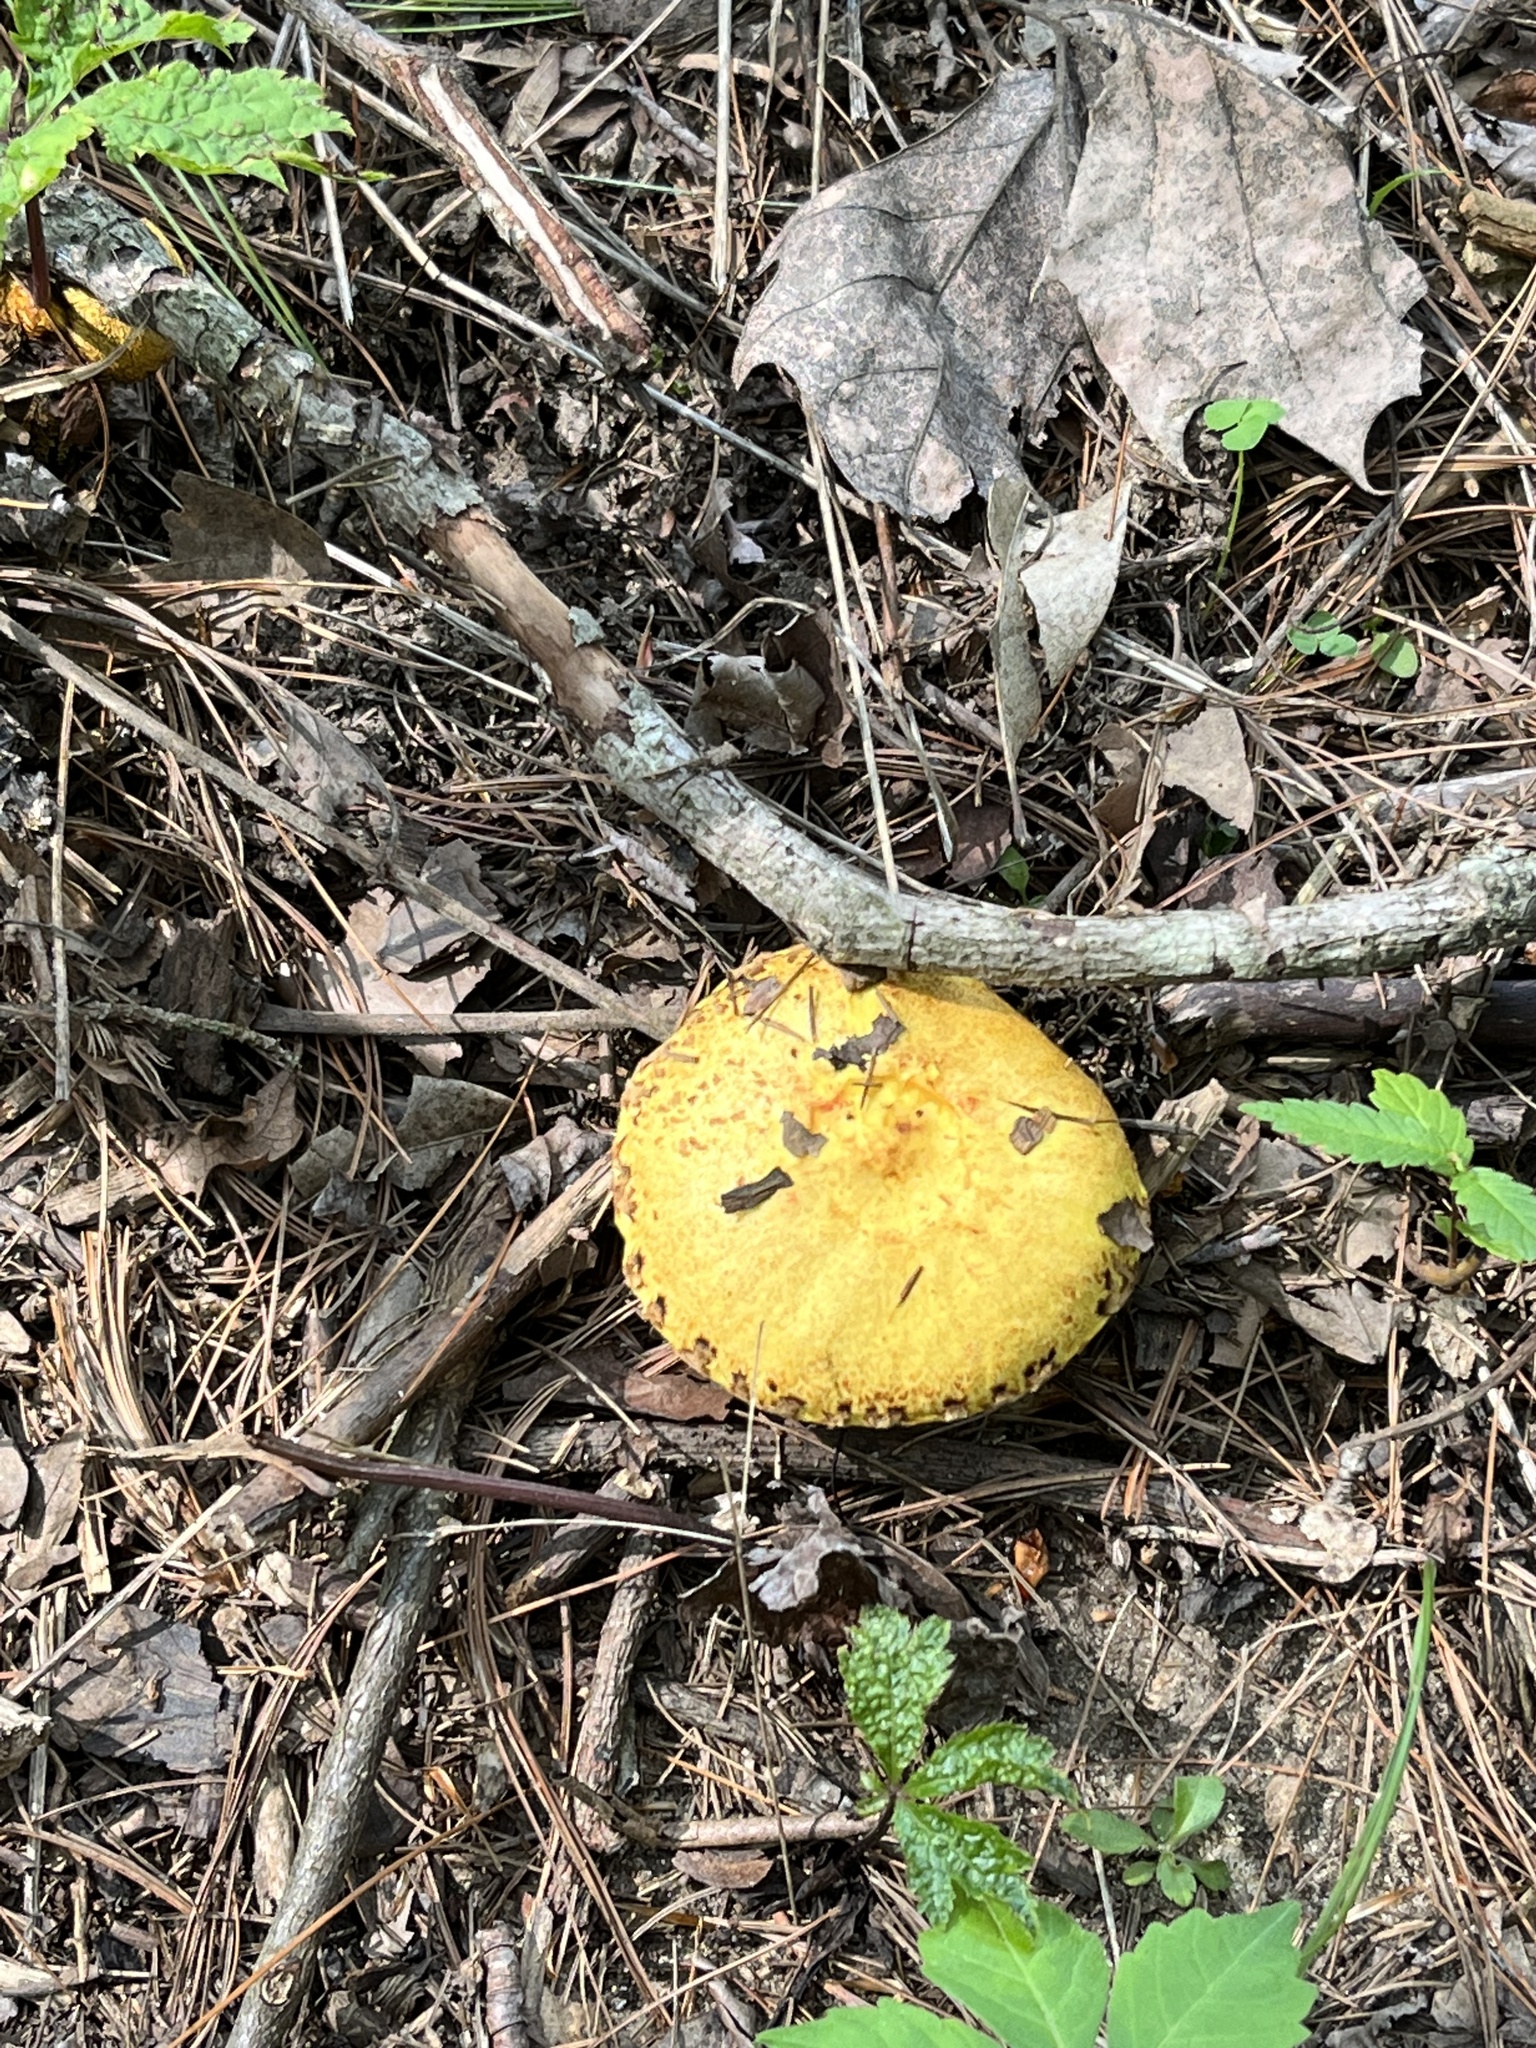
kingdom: Fungi
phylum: Basidiomycota
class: Agaricomycetes
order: Boletales
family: Suillaceae
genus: Suillus
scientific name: Suillus americanus
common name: Chicken fat mushroom
